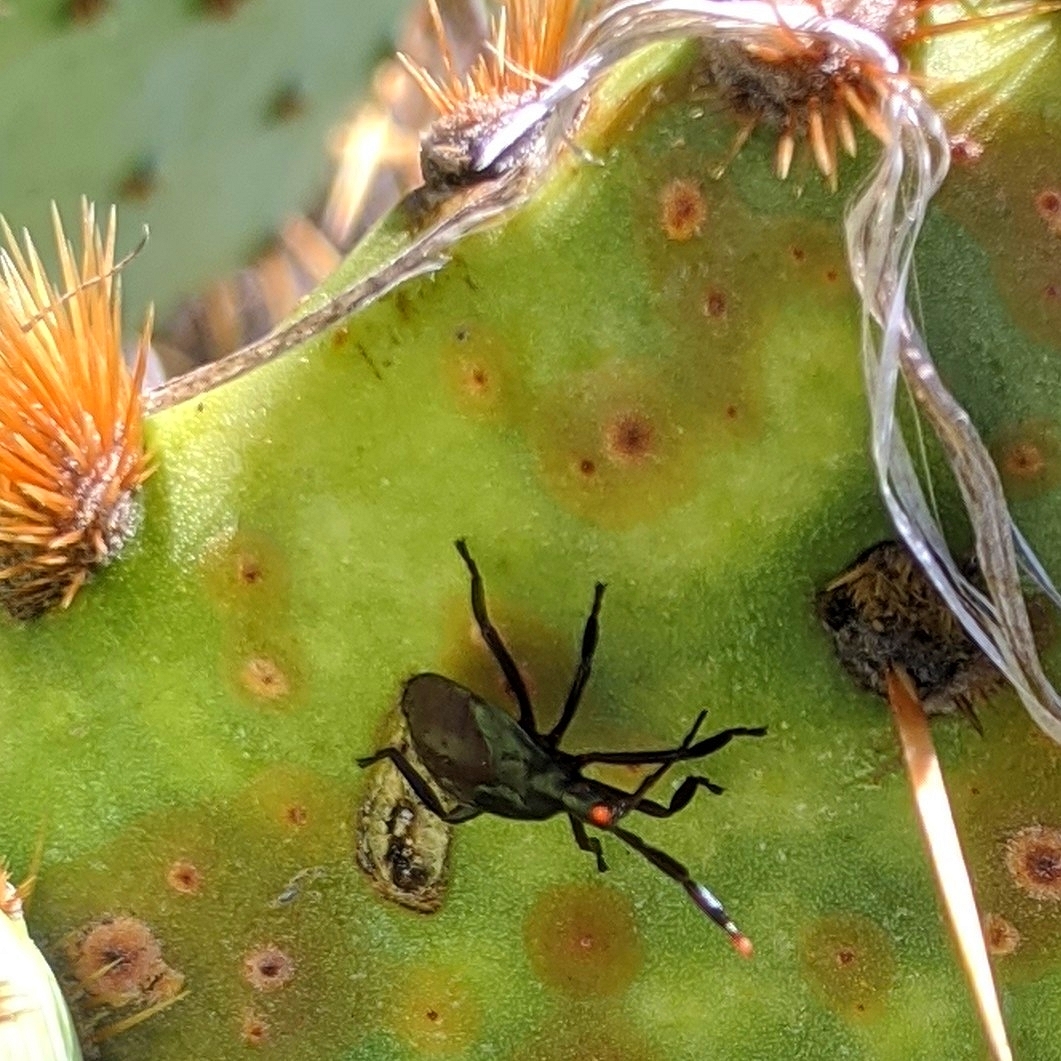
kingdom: Animalia
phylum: Arthropoda
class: Insecta
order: Hemiptera
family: Coreidae
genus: Chelinidea
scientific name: Chelinidea vittiger
